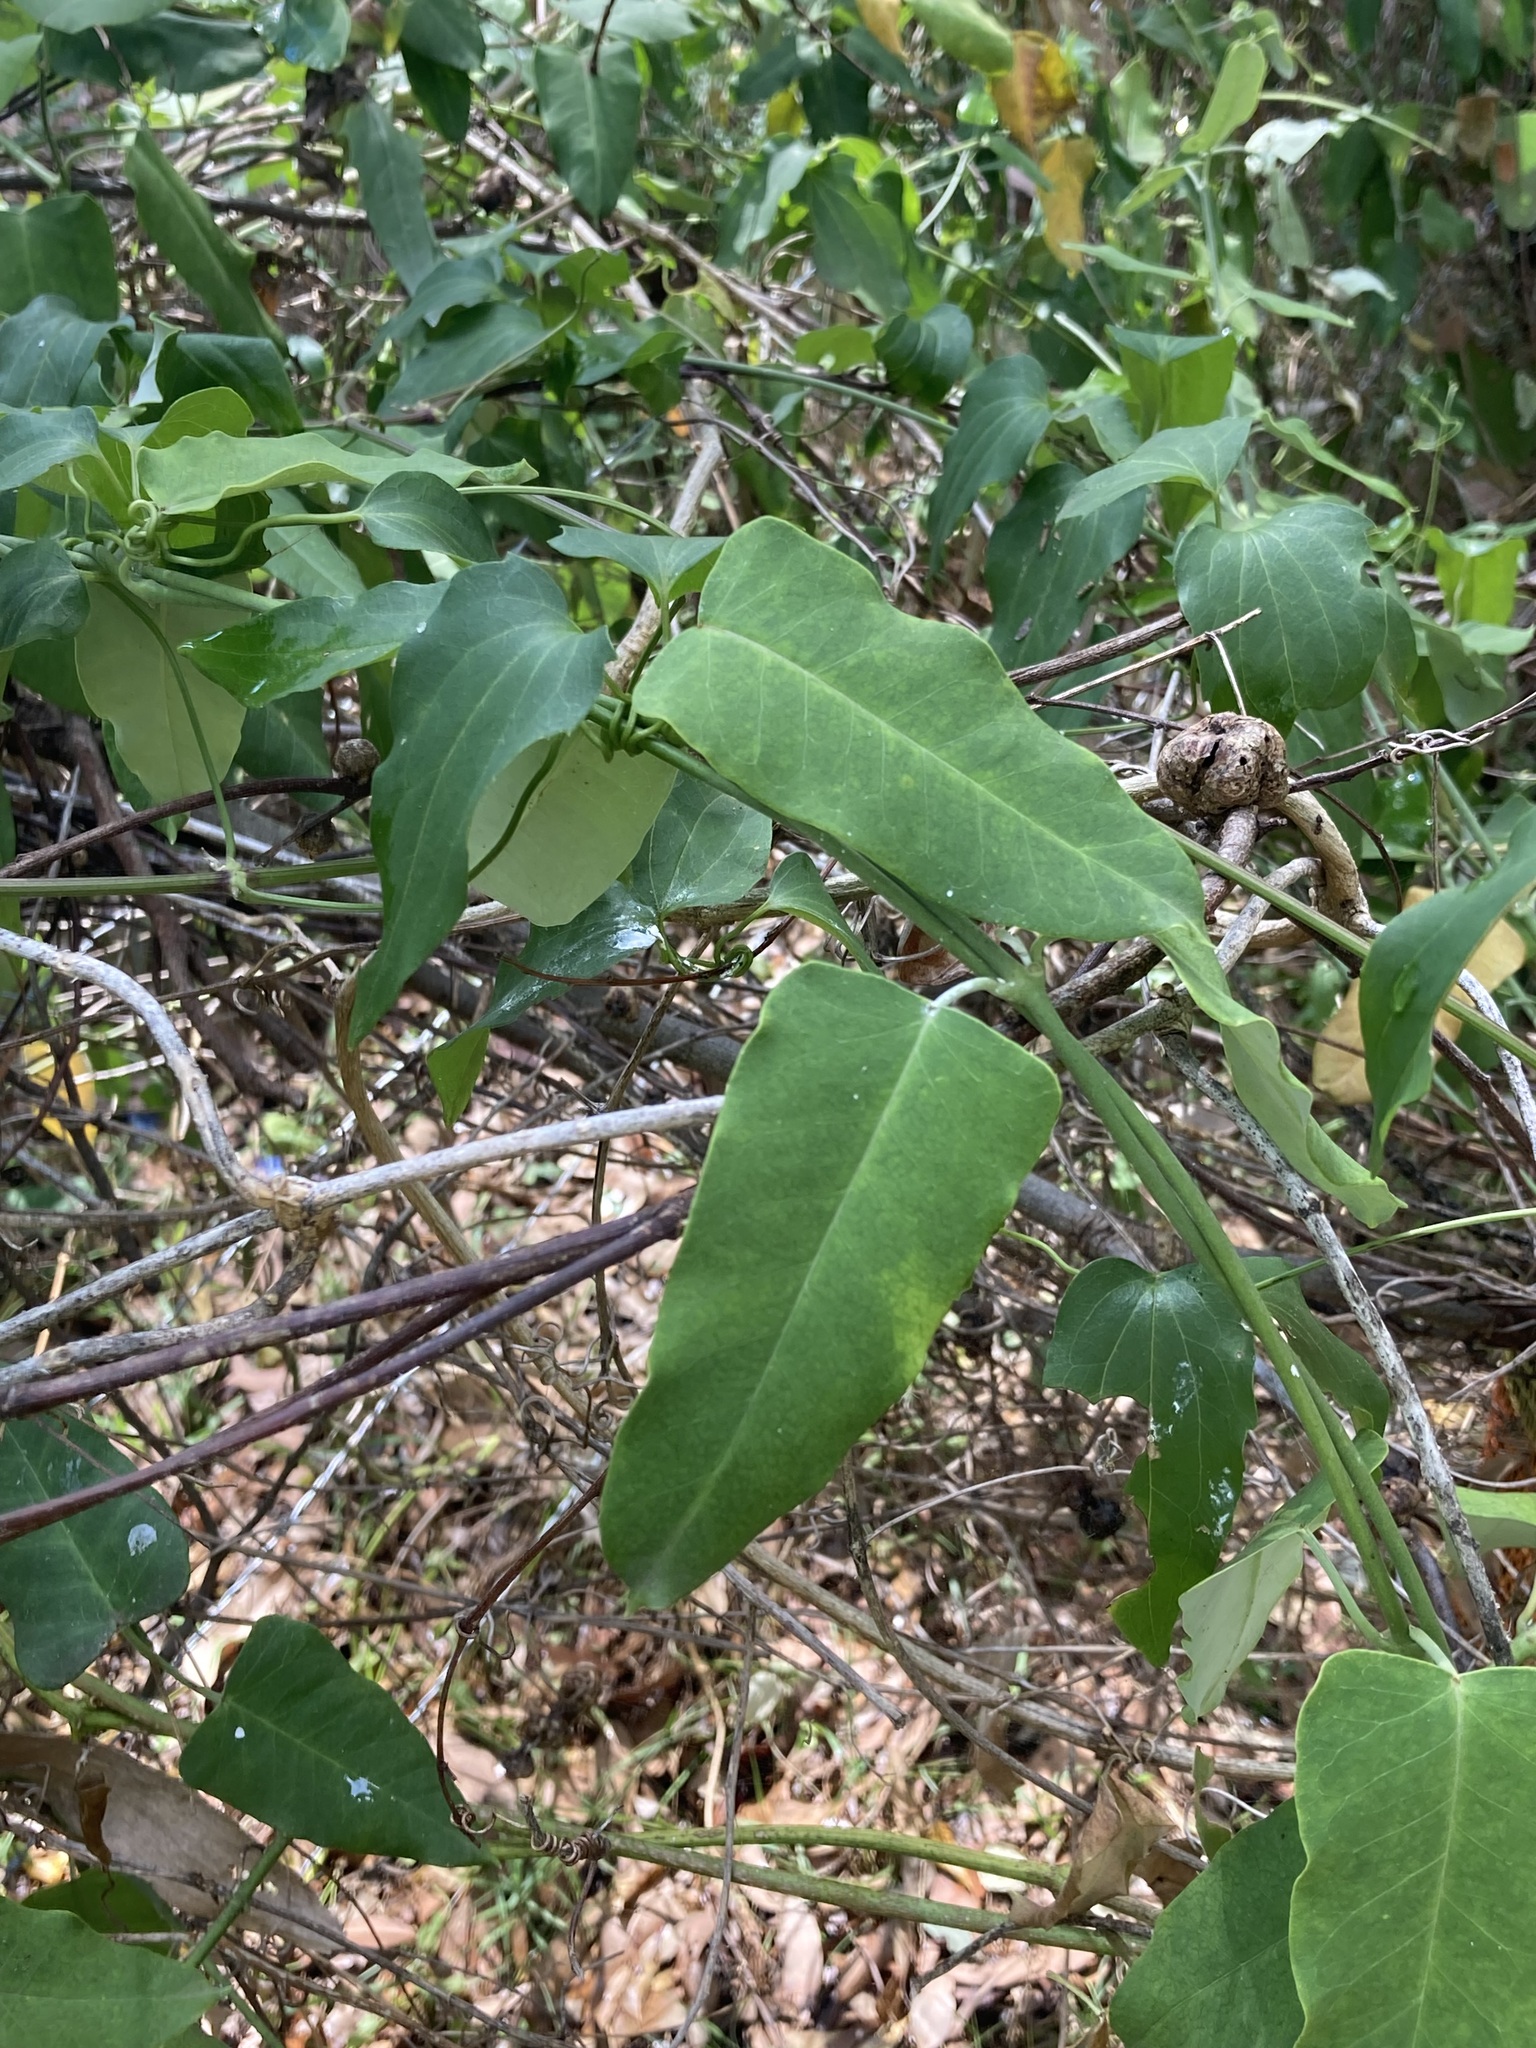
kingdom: Plantae
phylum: Tracheophyta
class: Magnoliopsida
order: Gentianales
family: Apocynaceae
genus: Araujia
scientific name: Araujia sericifera
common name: White bladderflower
